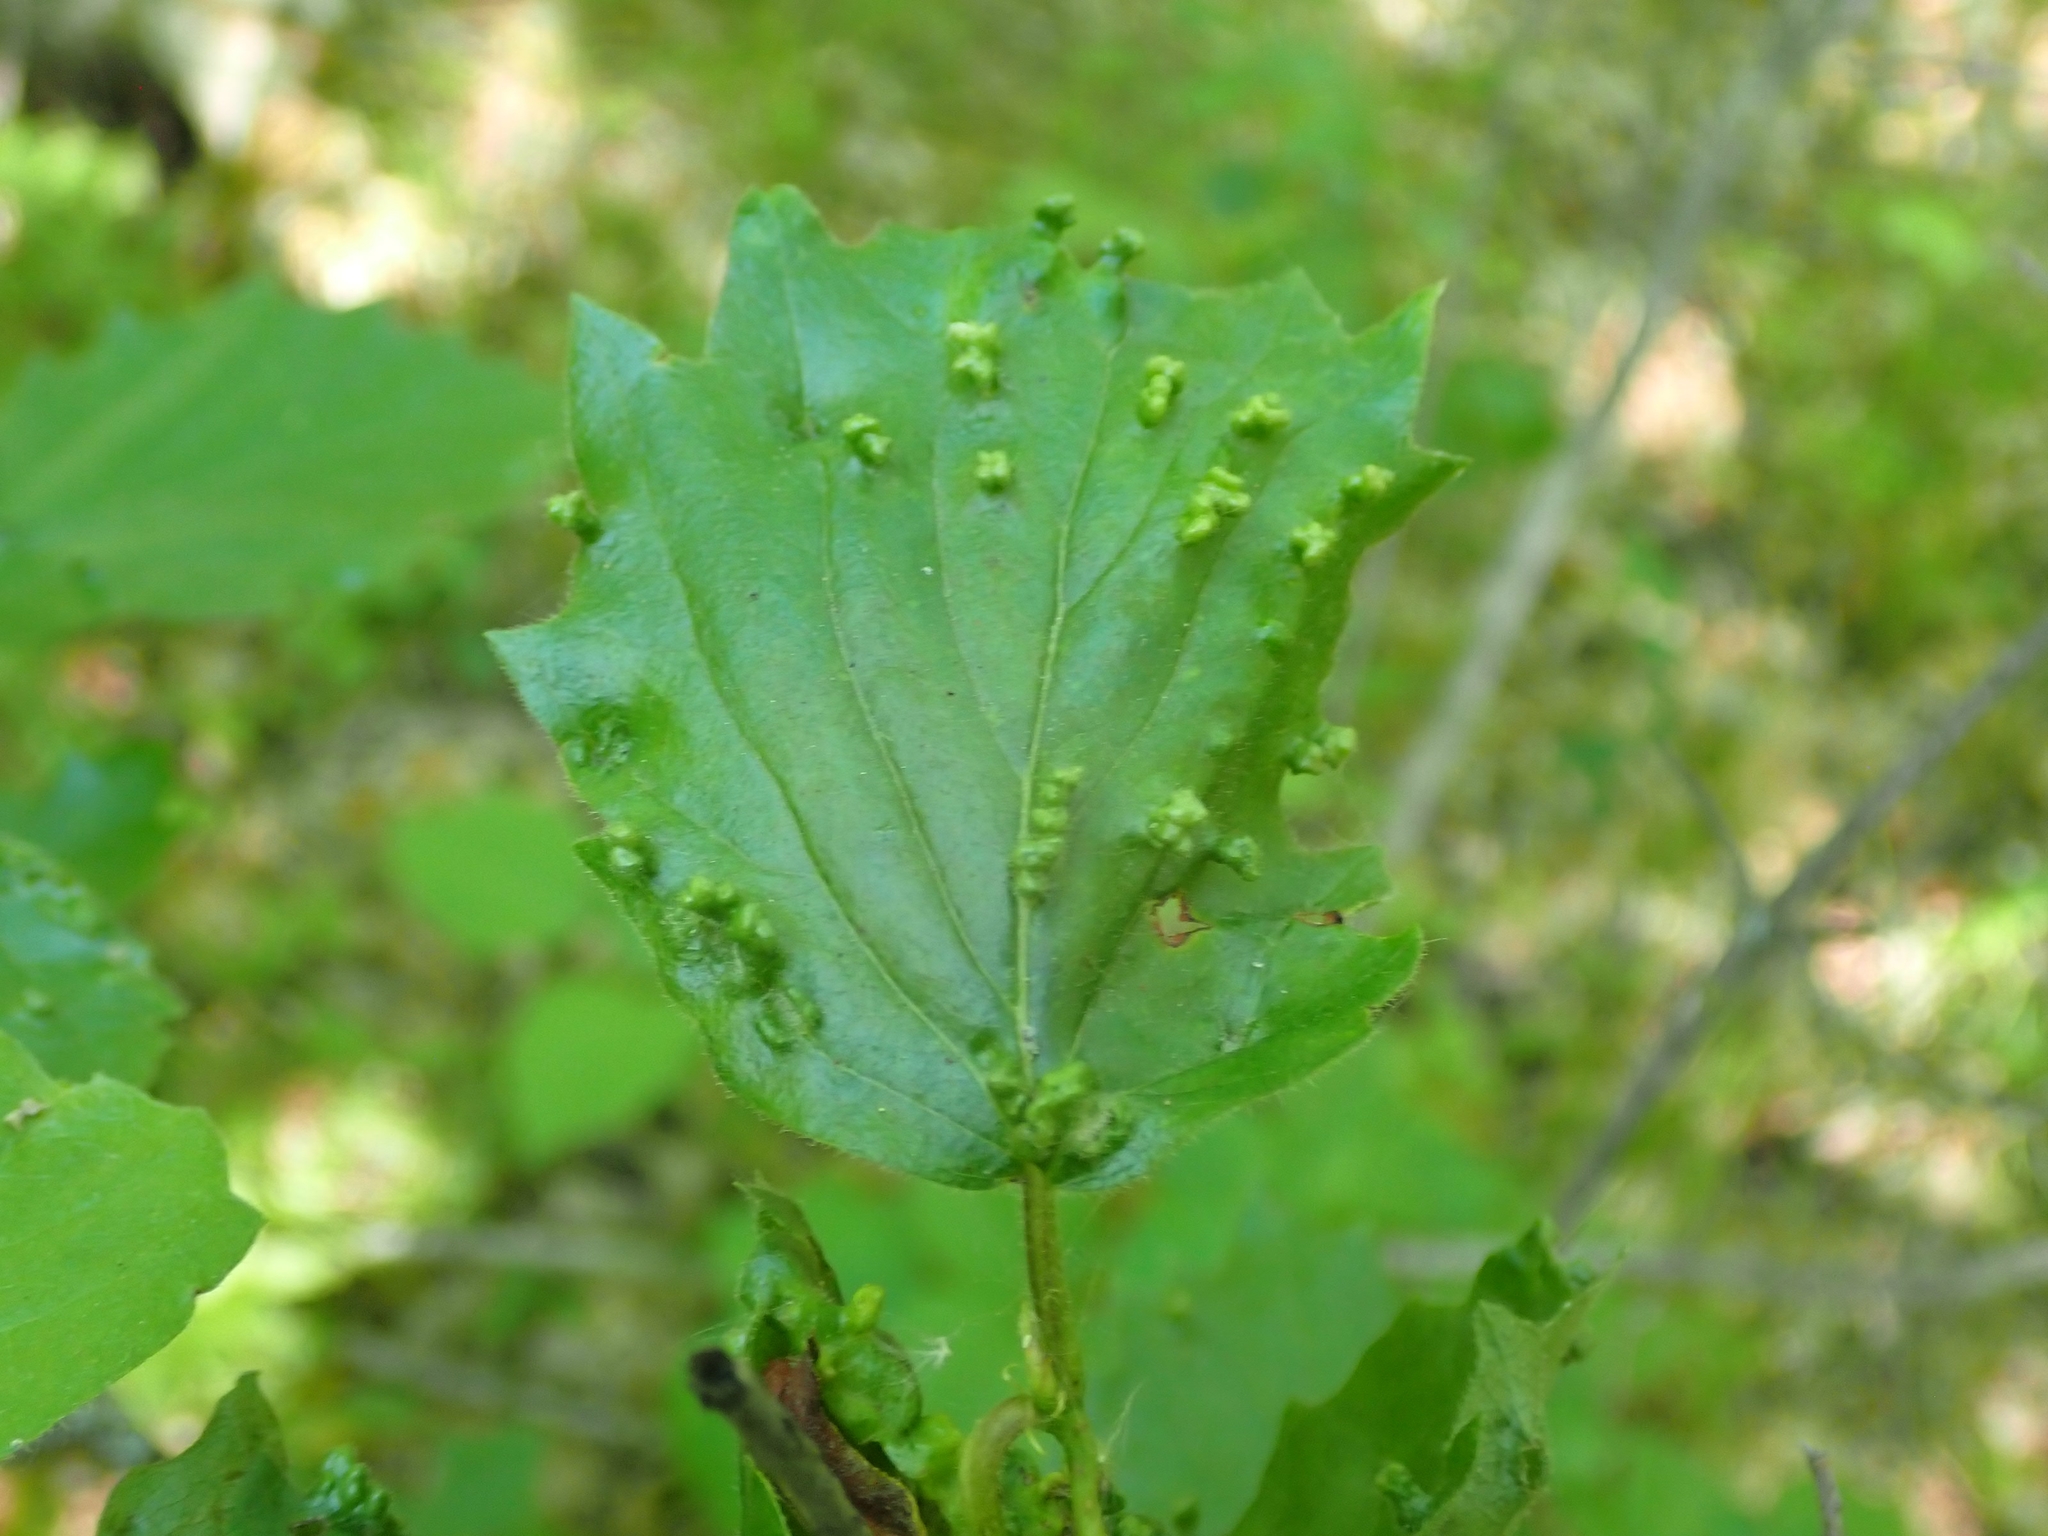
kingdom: Plantae
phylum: Tracheophyta
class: Magnoliopsida
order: Dipsacales
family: Viburnaceae
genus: Viburnum
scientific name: Viburnum rafinesqueanum
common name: Downy arrow-wood
